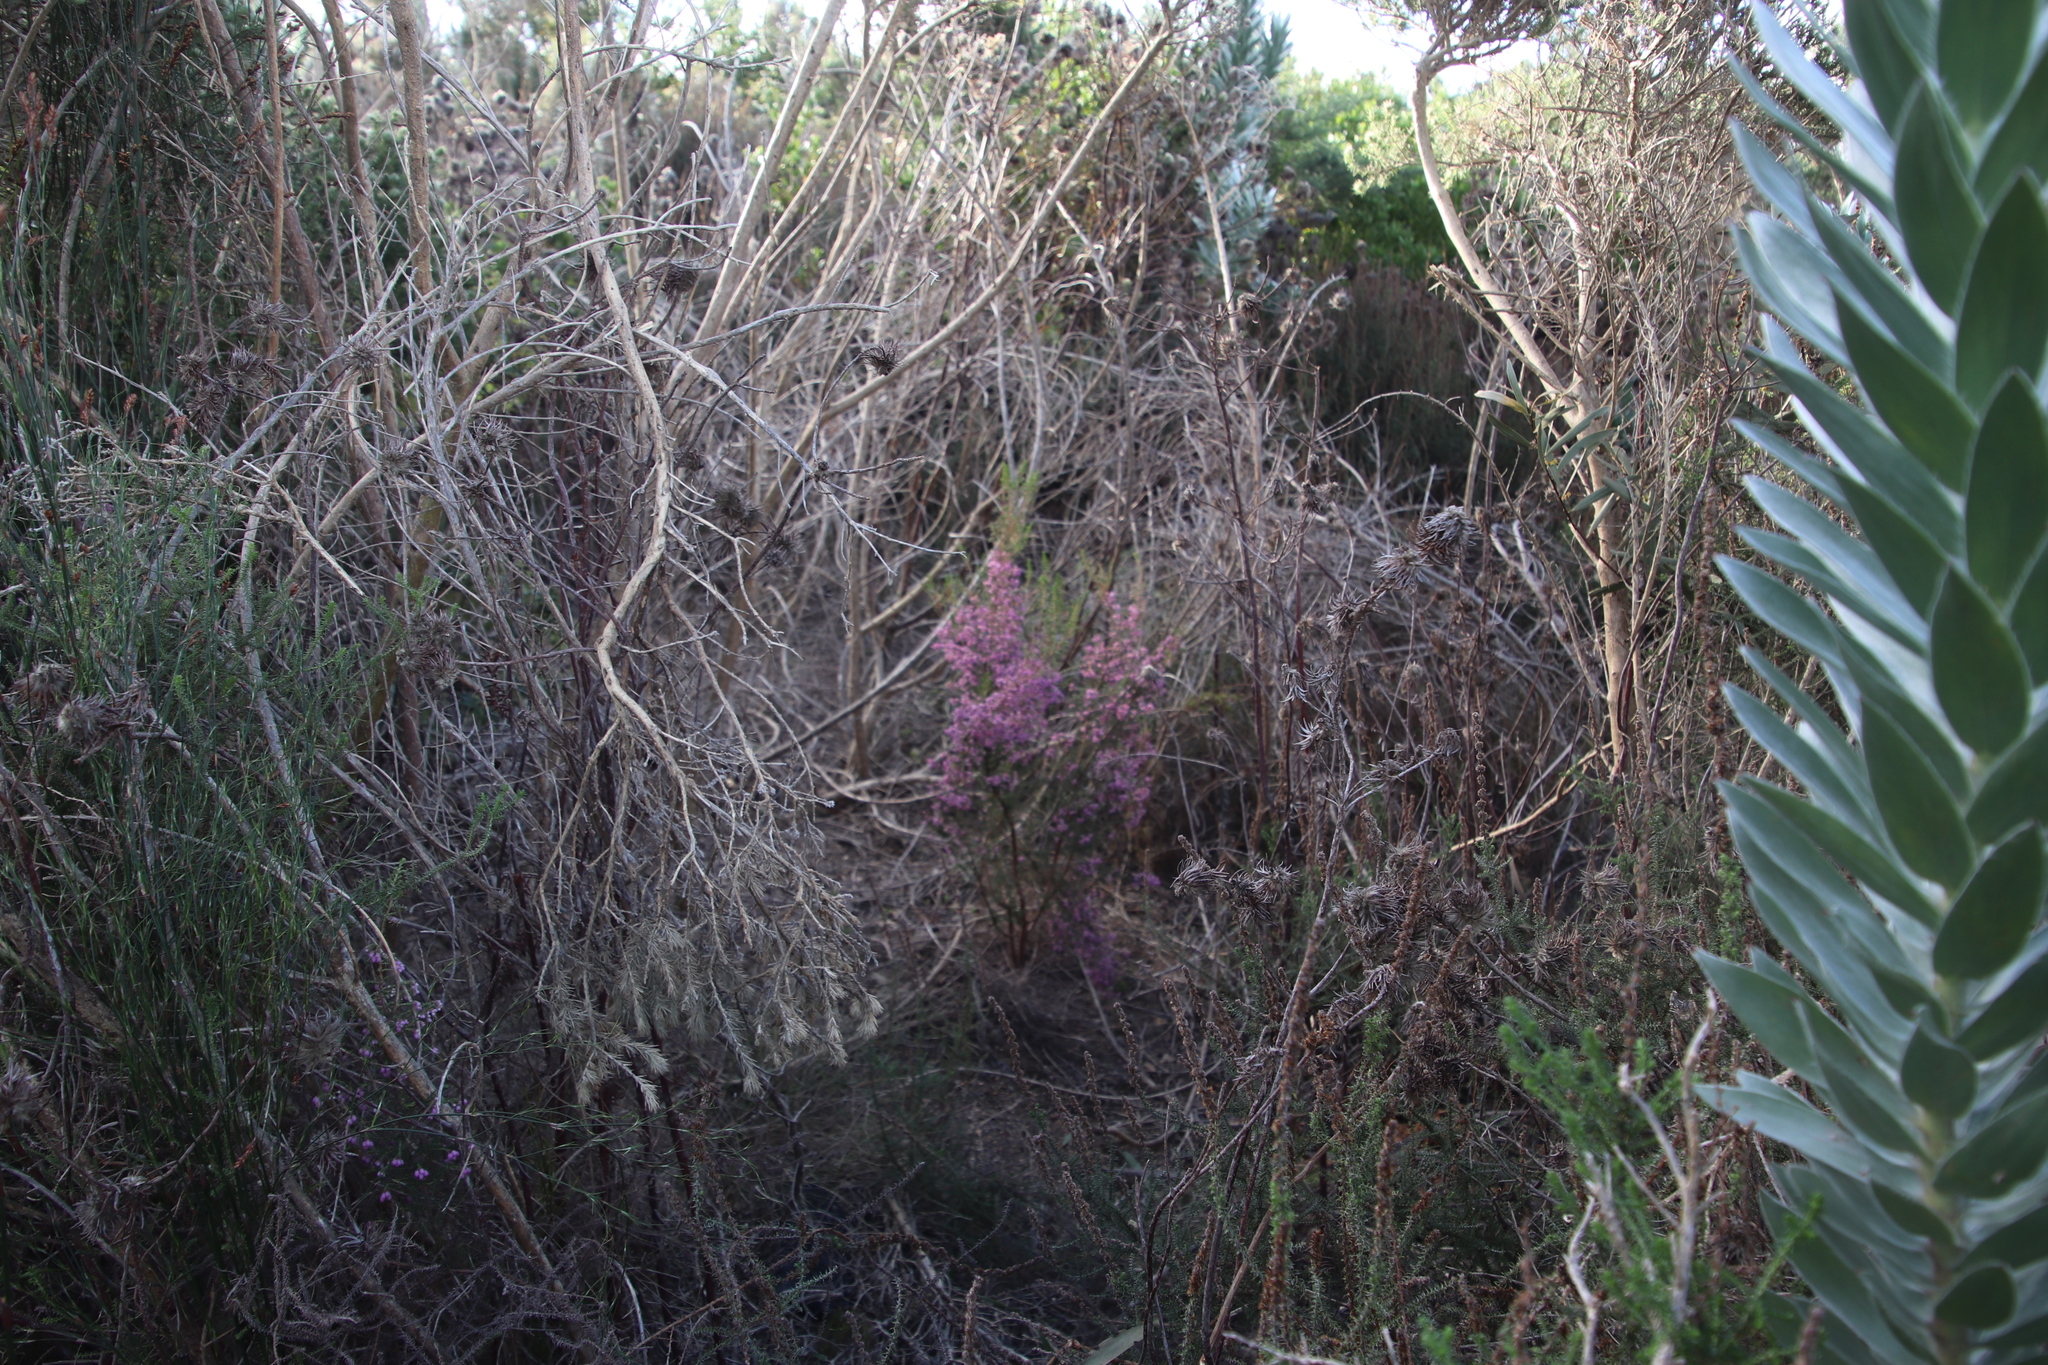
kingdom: Plantae
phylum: Tracheophyta
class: Magnoliopsida
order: Ericales
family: Ericaceae
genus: Erica
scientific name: Erica hirtiflora
